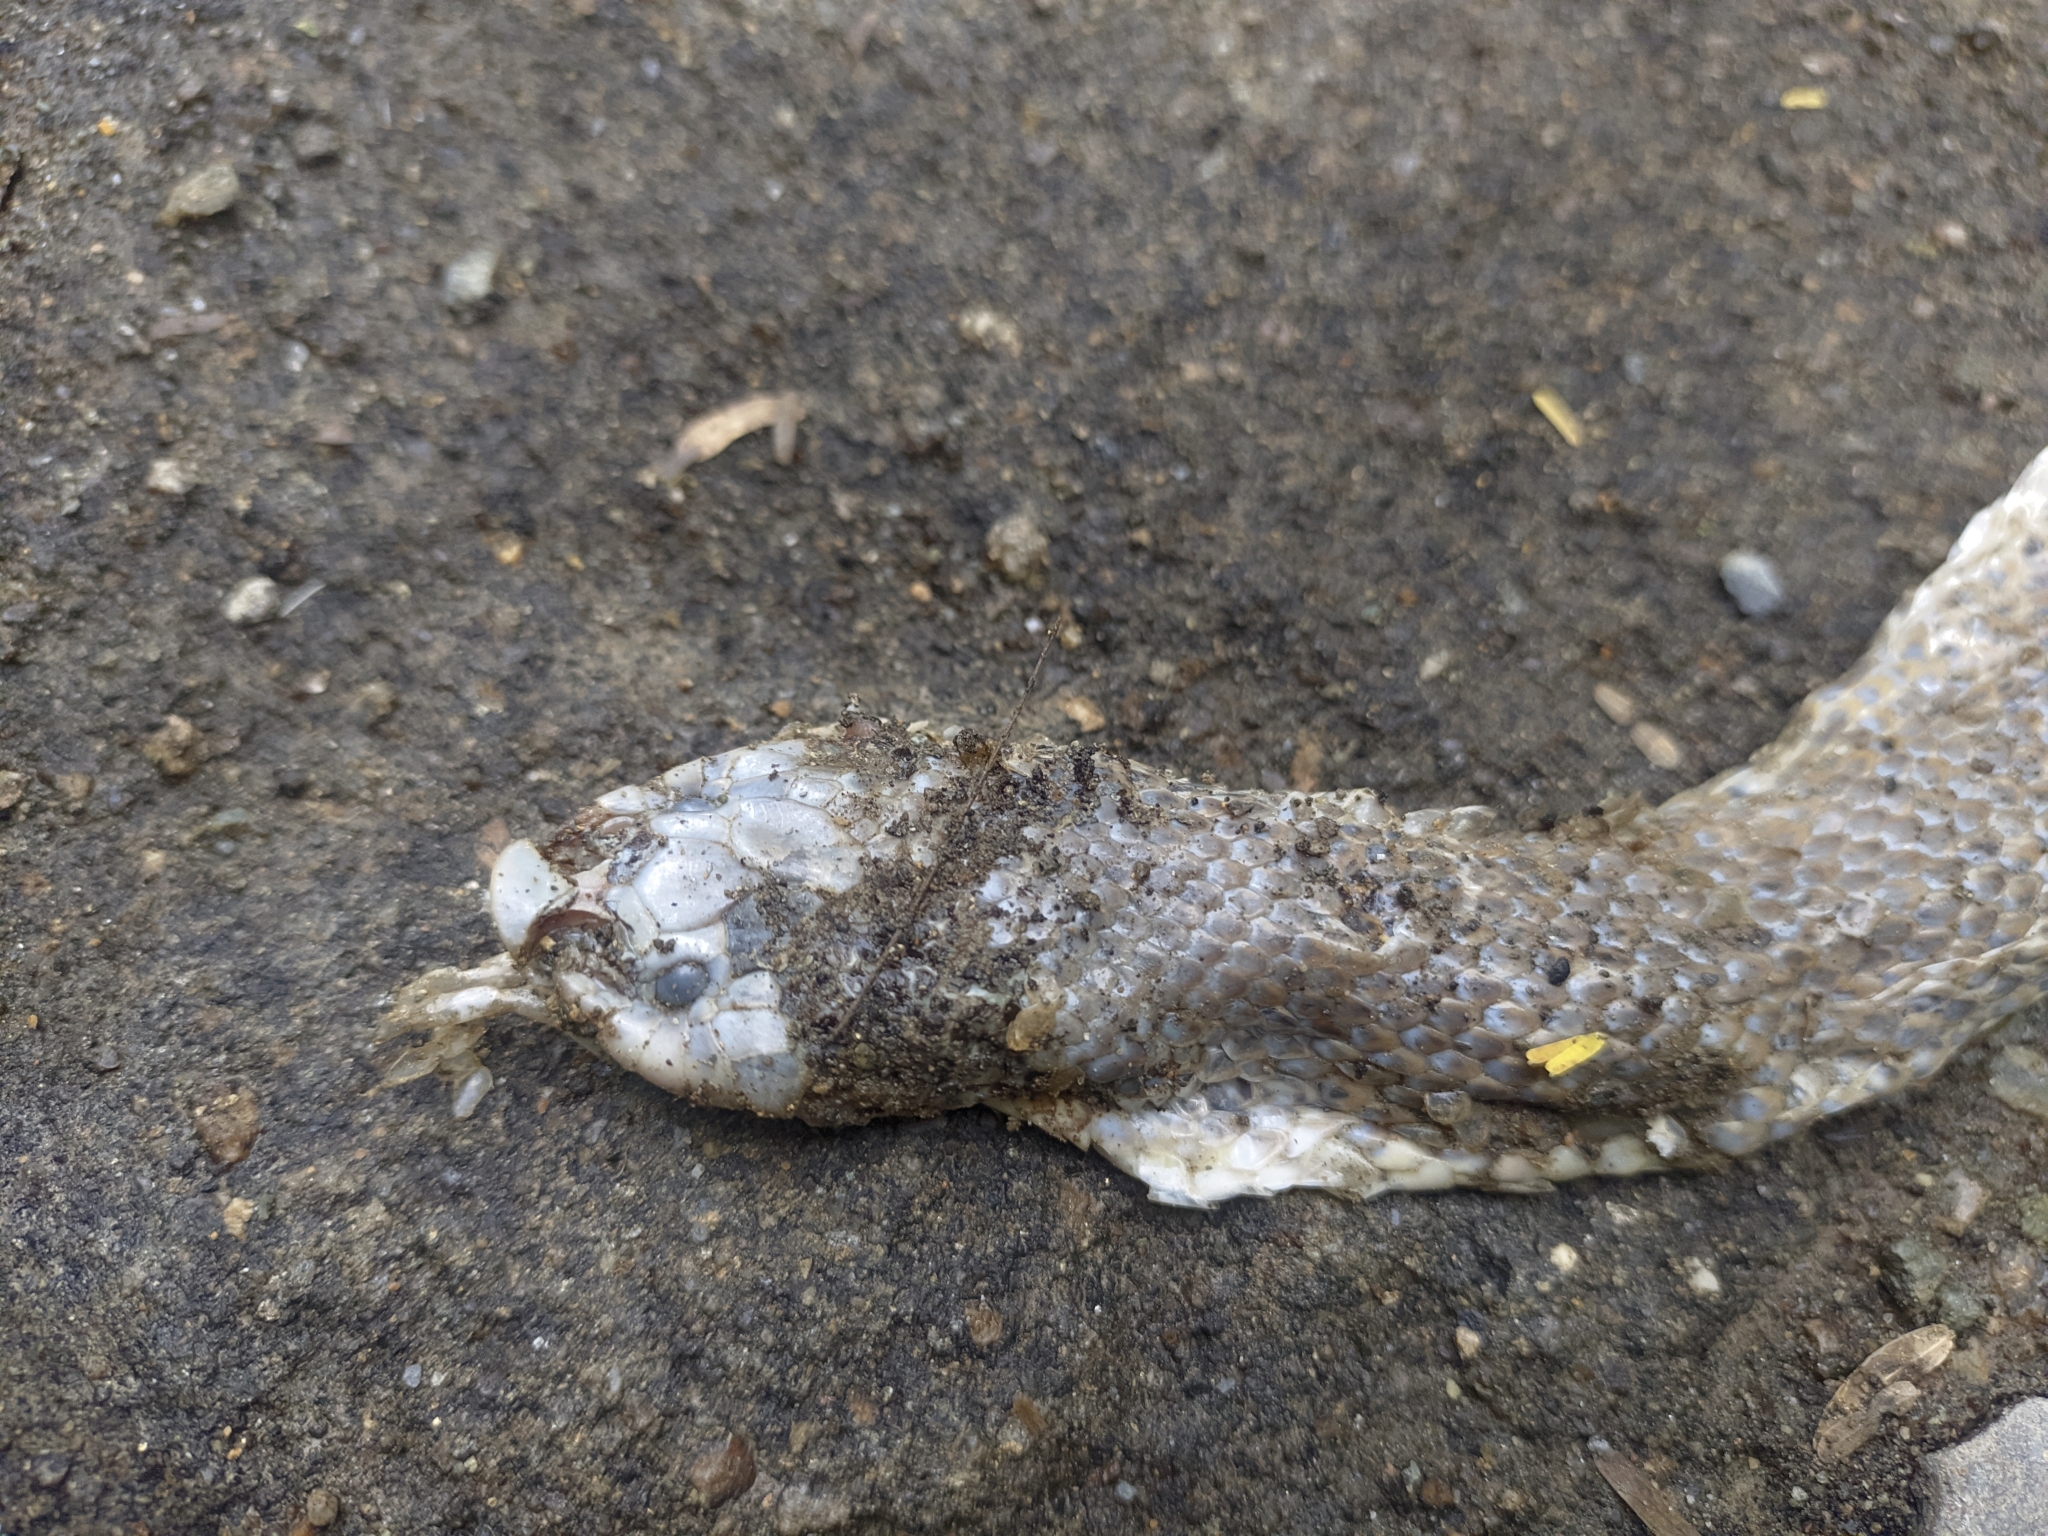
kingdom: Animalia
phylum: Chordata
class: Squamata
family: Colubridae
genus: Phimophis
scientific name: Phimophis guianensis
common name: Troschel's pampas snake
